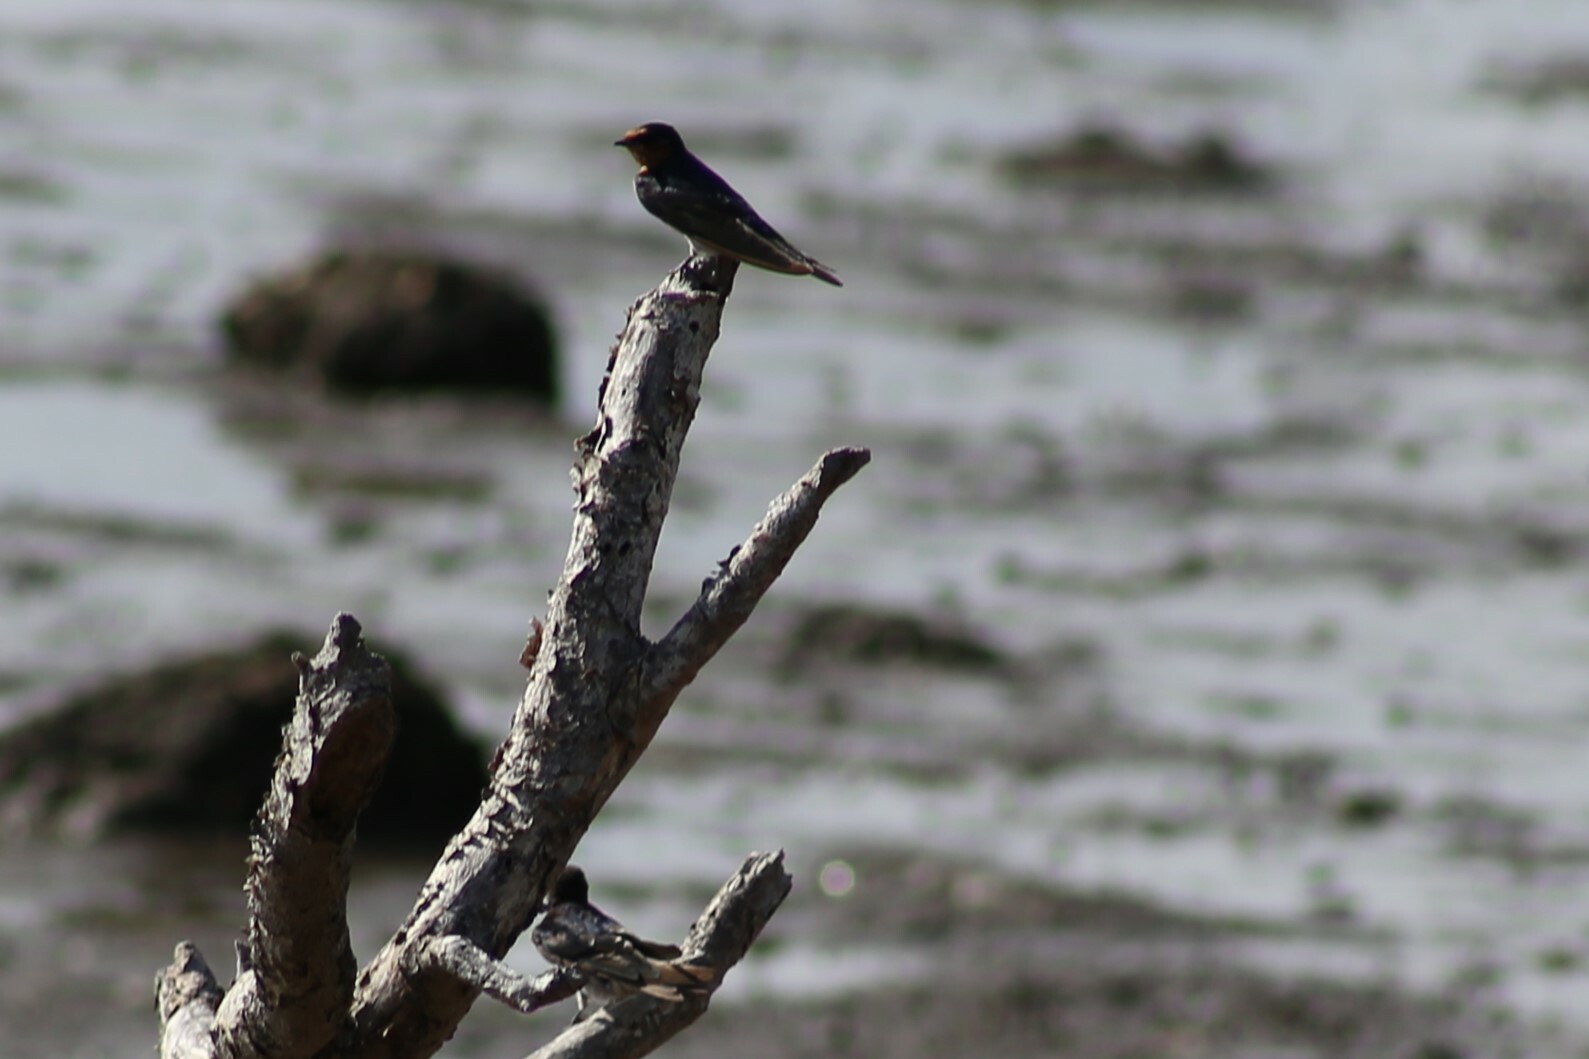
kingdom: Animalia
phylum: Chordata
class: Aves
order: Passeriformes
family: Hirundinidae
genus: Hirundo
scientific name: Hirundo neoxena
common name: Welcome swallow
